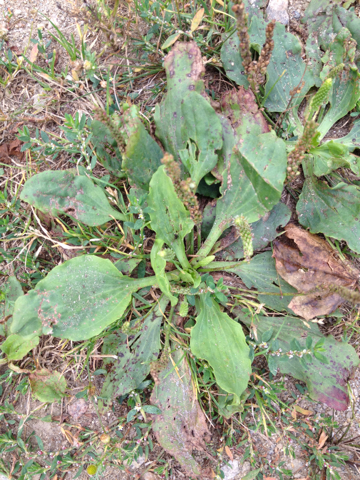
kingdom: Plantae
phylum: Tracheophyta
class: Magnoliopsida
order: Lamiales
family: Plantaginaceae
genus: Plantago
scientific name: Plantago major
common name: Common plantain
